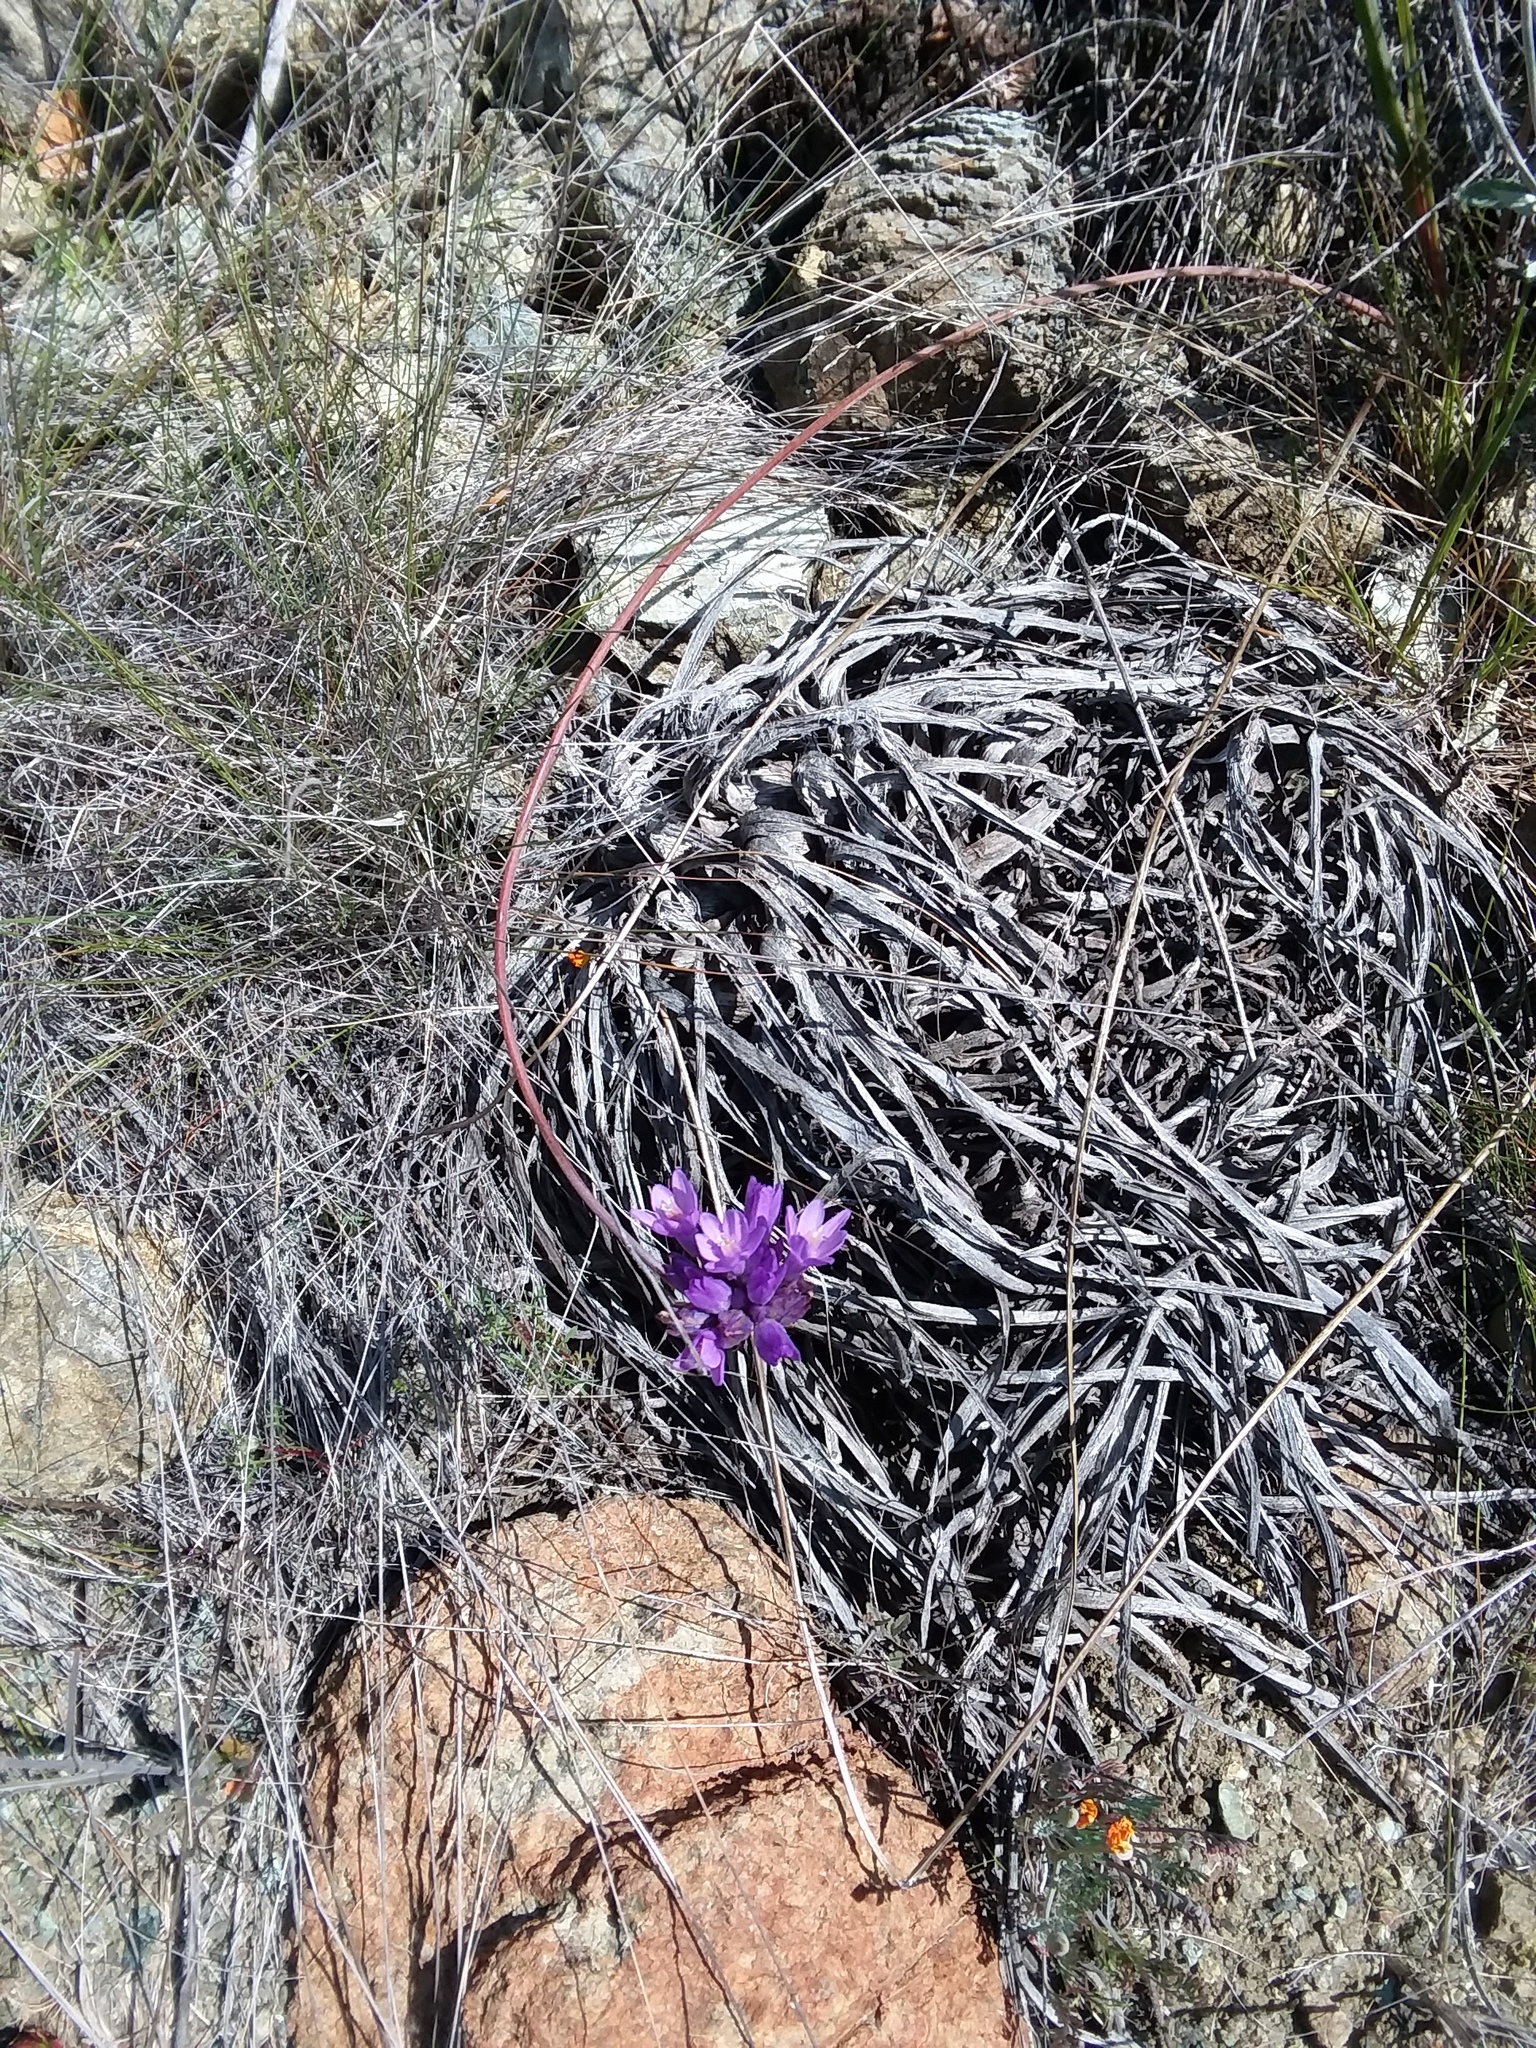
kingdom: Plantae
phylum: Tracheophyta
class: Liliopsida
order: Asparagales
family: Asparagaceae
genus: Dipterostemon
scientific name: Dipterostemon capitatus
